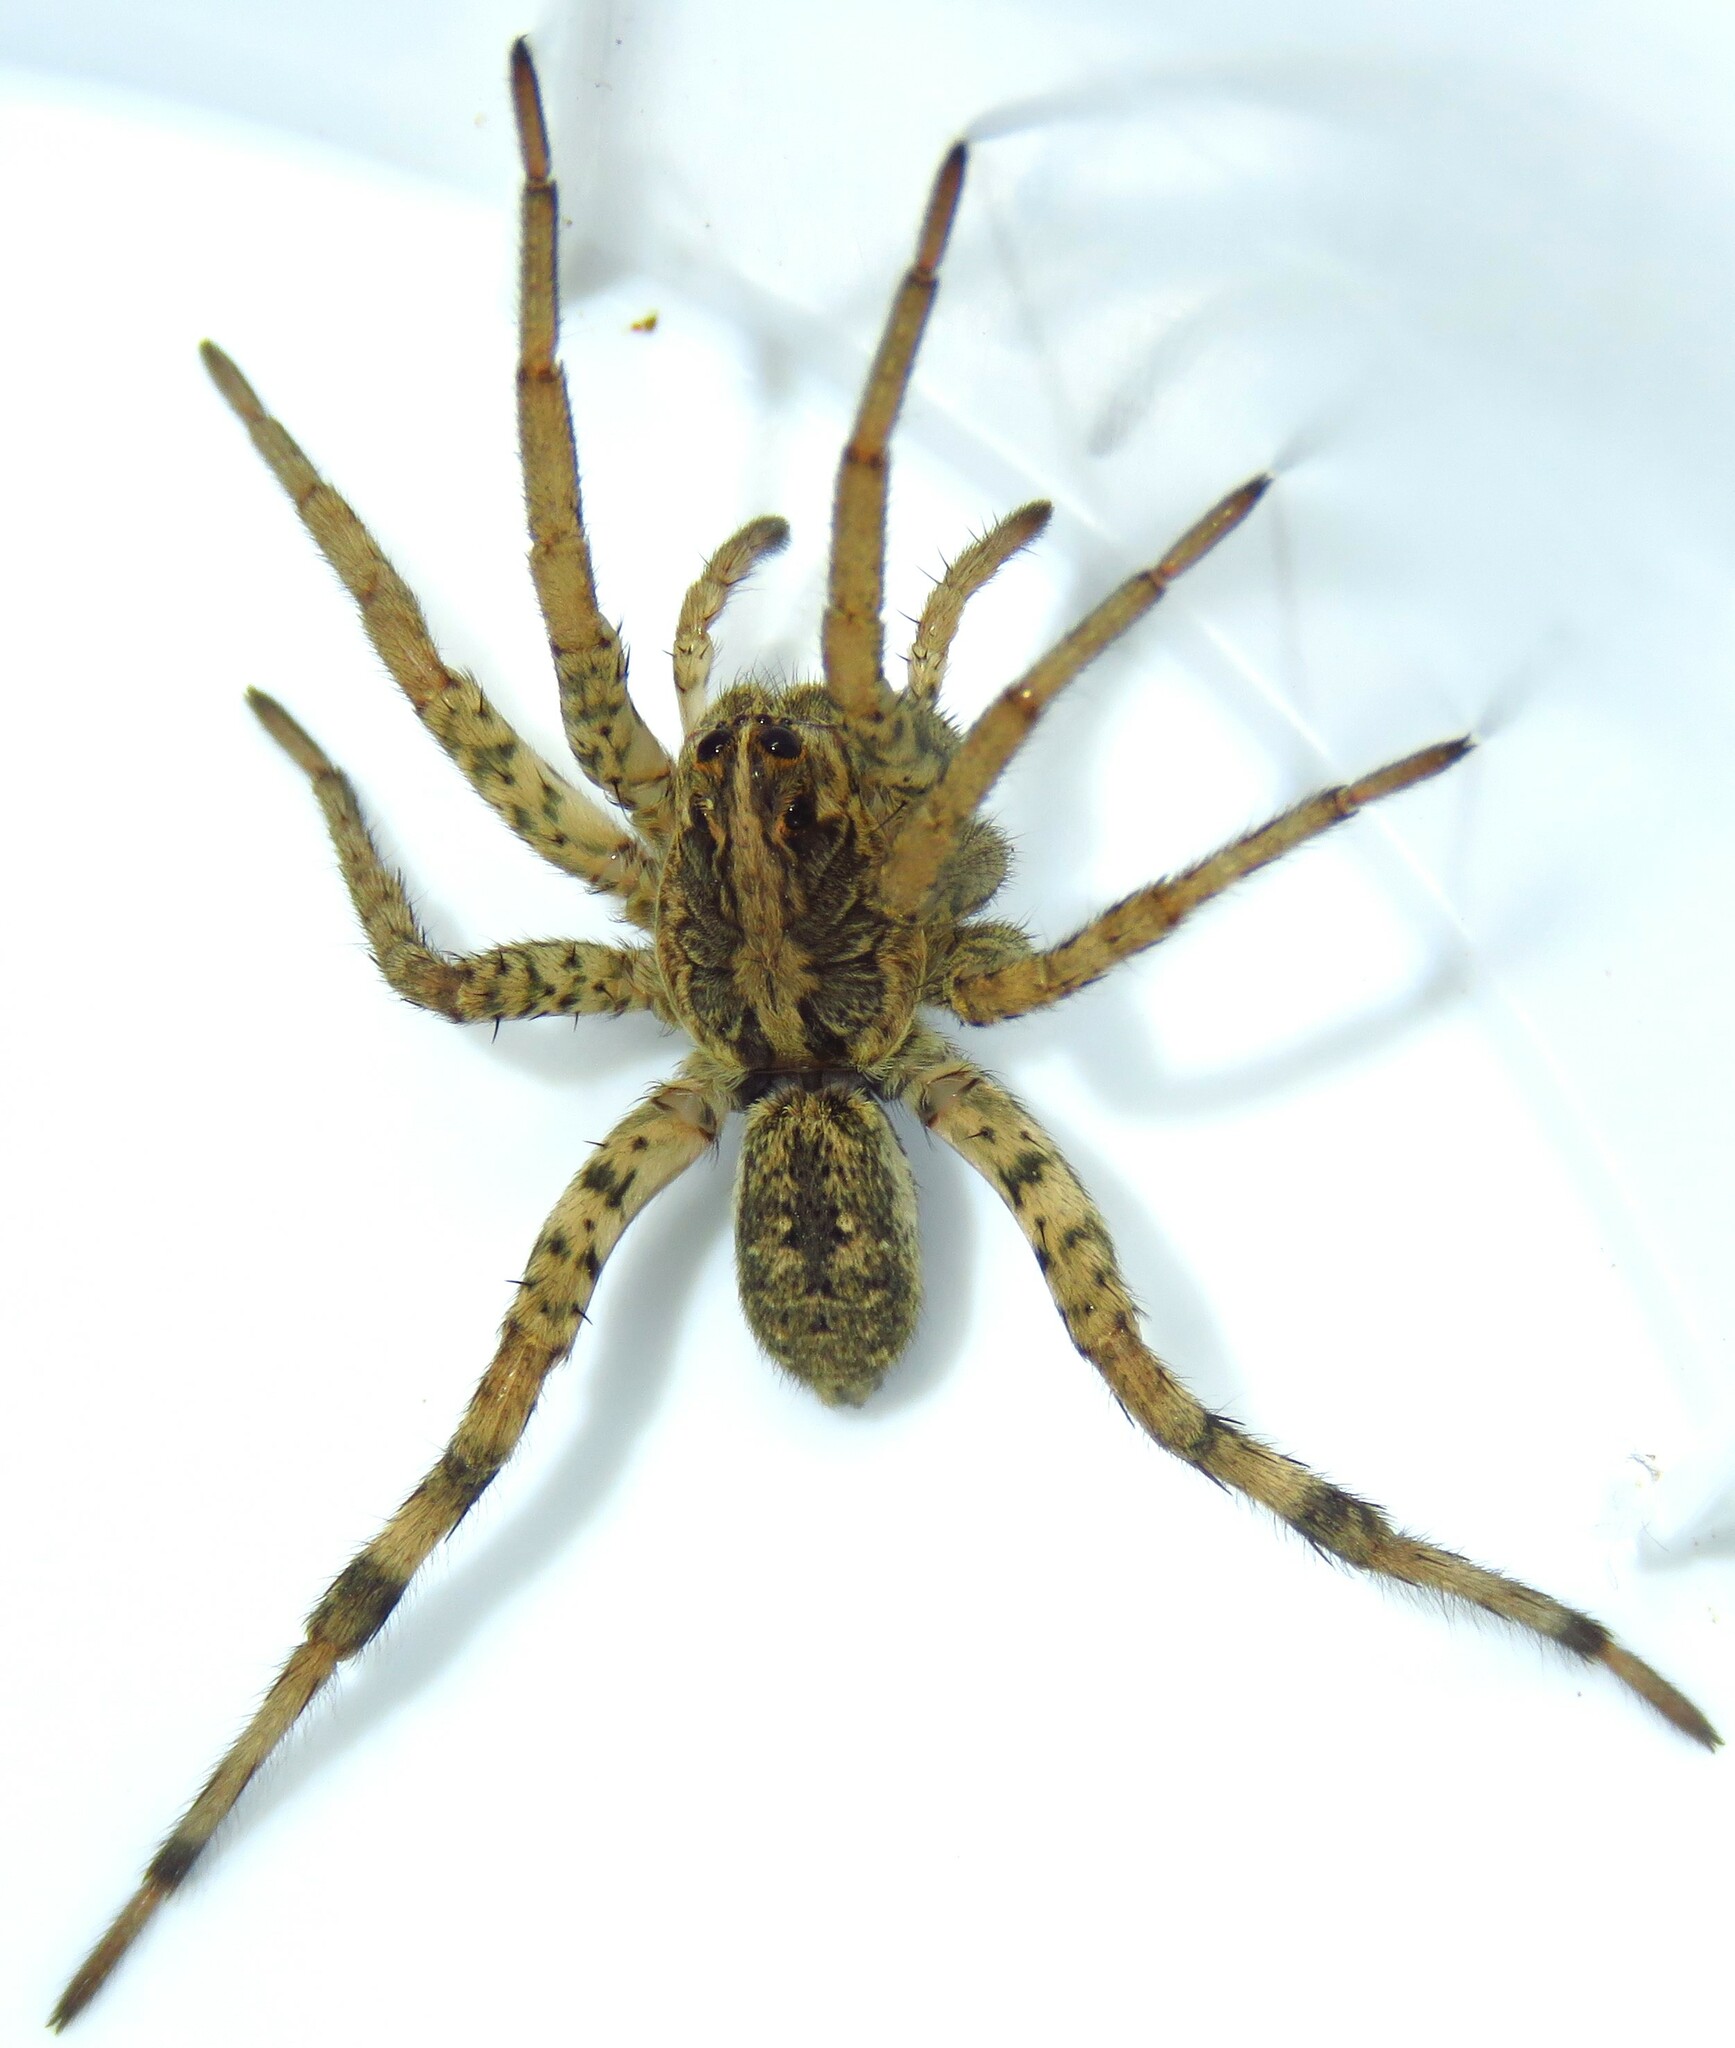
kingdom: Animalia
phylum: Arthropoda
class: Arachnida
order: Araneae
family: Lycosidae
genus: Hogna
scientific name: Hogna antelucana
